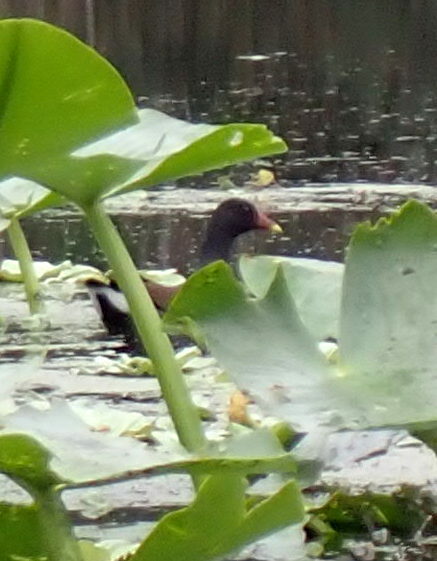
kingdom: Animalia
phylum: Chordata
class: Aves
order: Gruiformes
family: Rallidae
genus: Gallinula
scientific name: Gallinula chloropus
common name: Common moorhen
